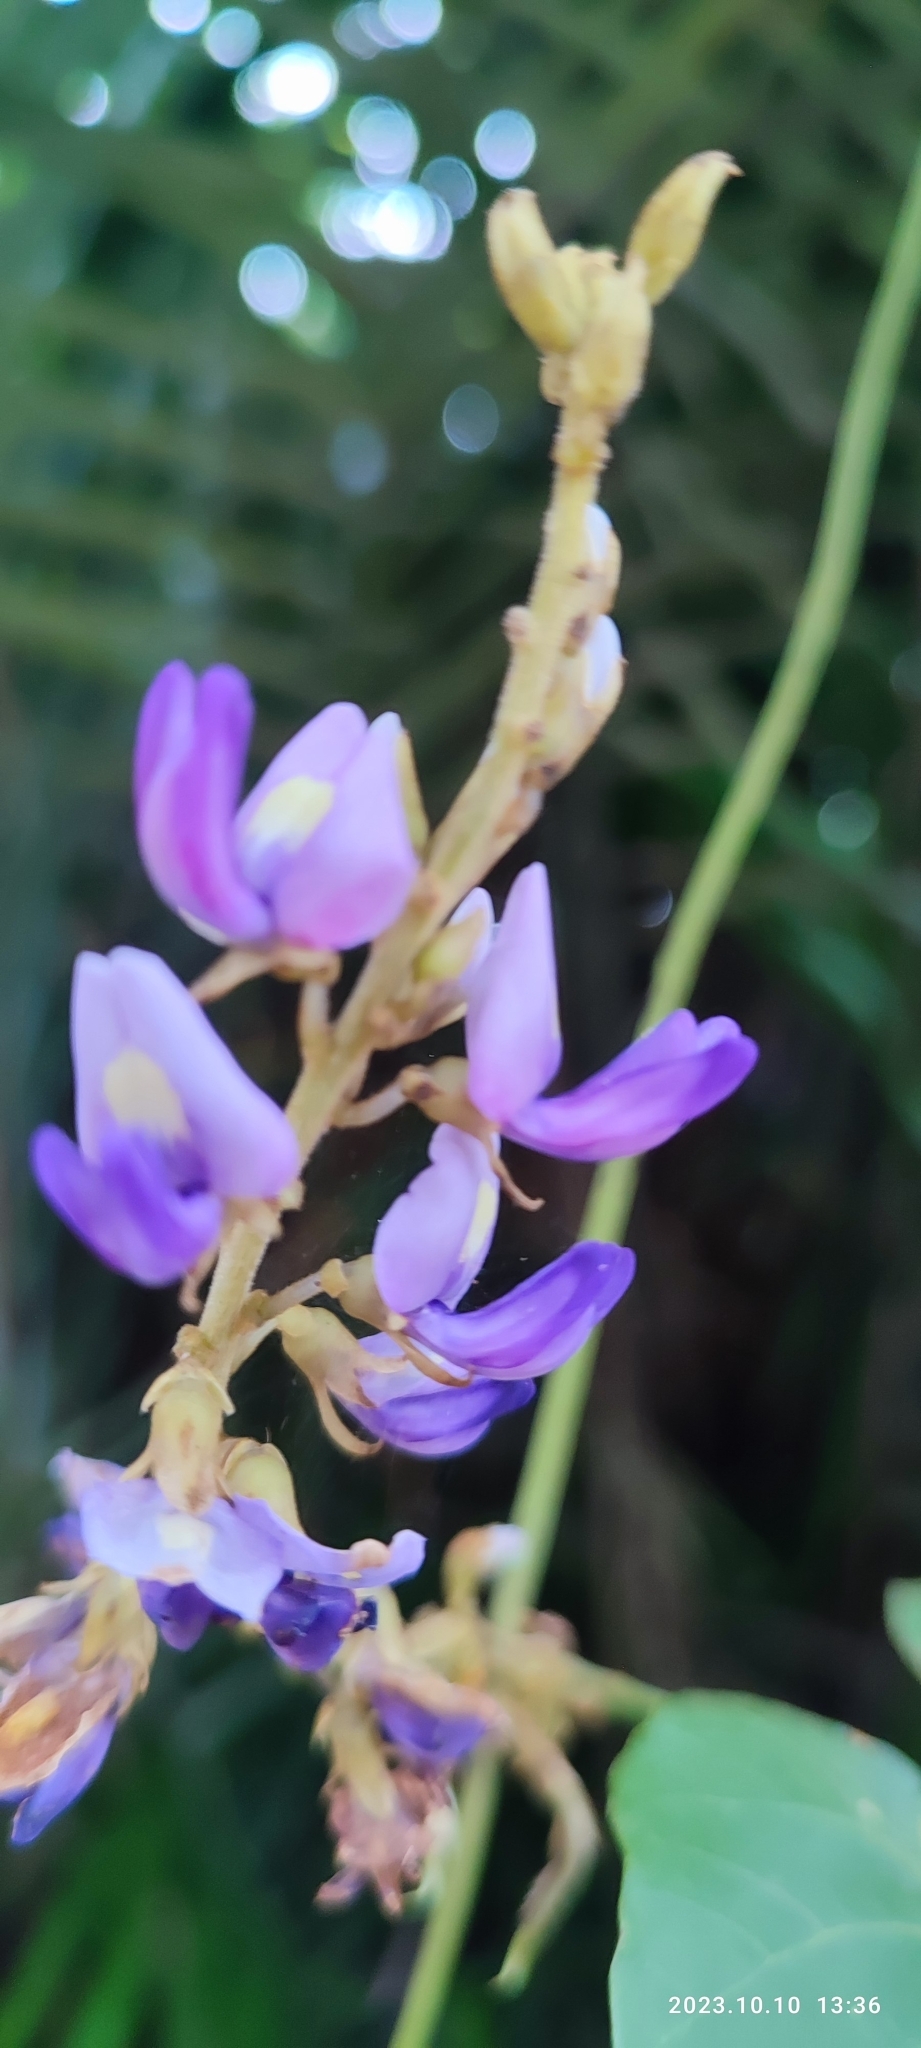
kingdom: Plantae
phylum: Tracheophyta
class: Magnoliopsida
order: Fabales
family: Fabaceae
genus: Pueraria
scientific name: Pueraria montana
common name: Kudzu
